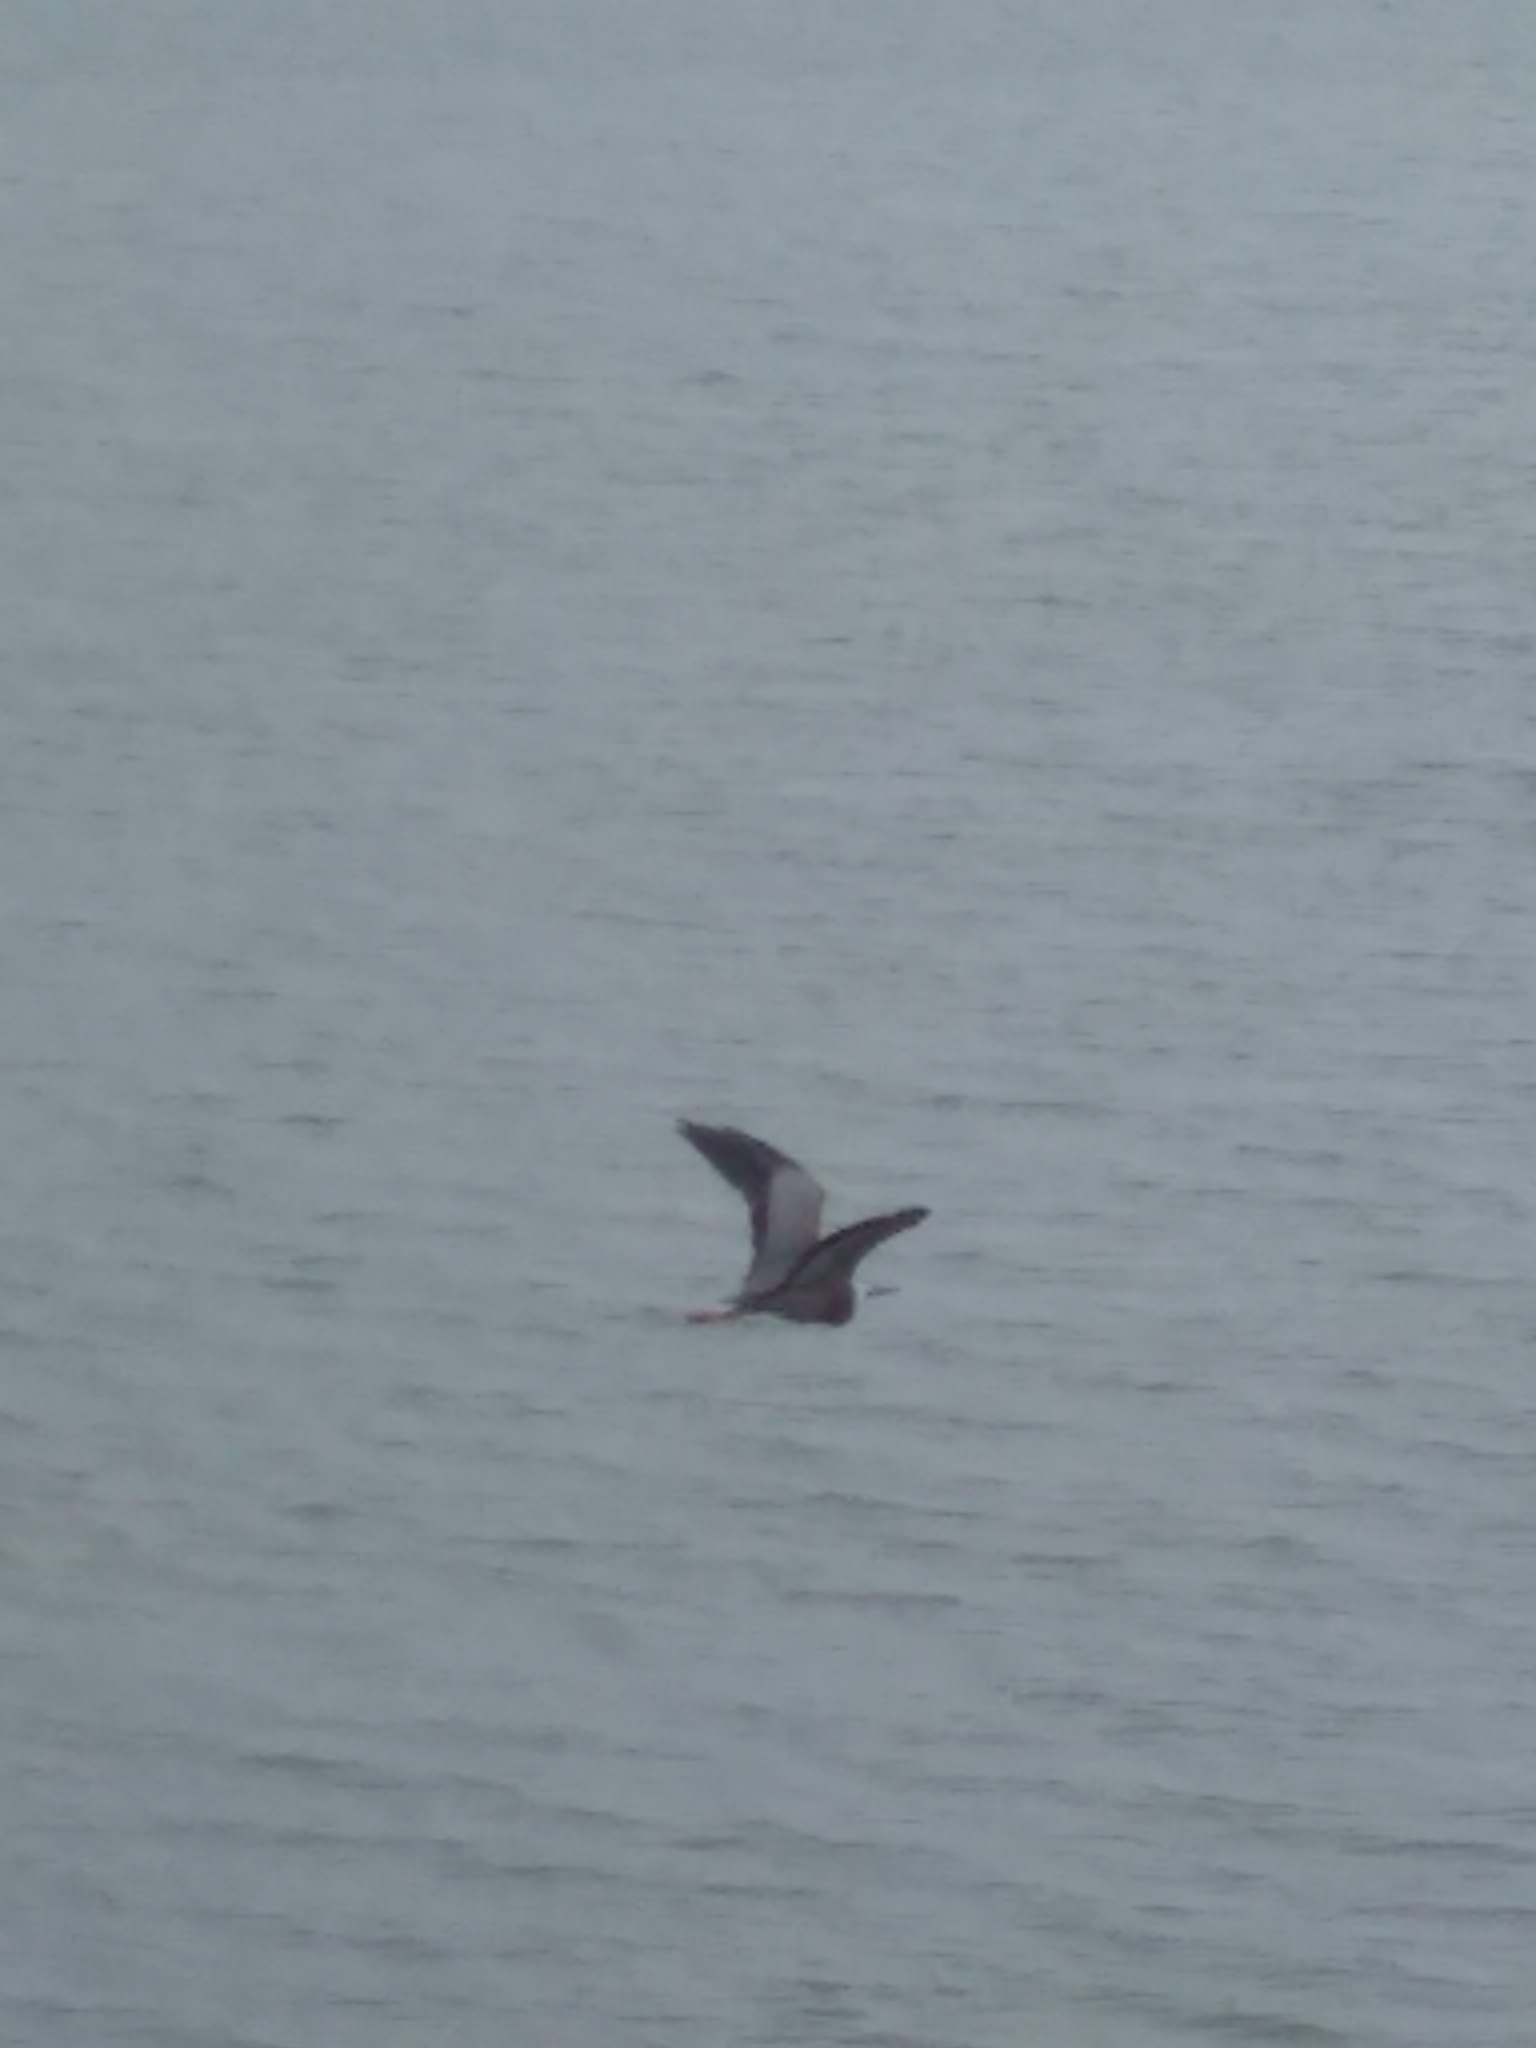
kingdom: Animalia
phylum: Chordata
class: Aves
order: Pelecaniformes
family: Ardeidae
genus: Egretta
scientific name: Egretta novaehollandiae
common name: White-faced heron
